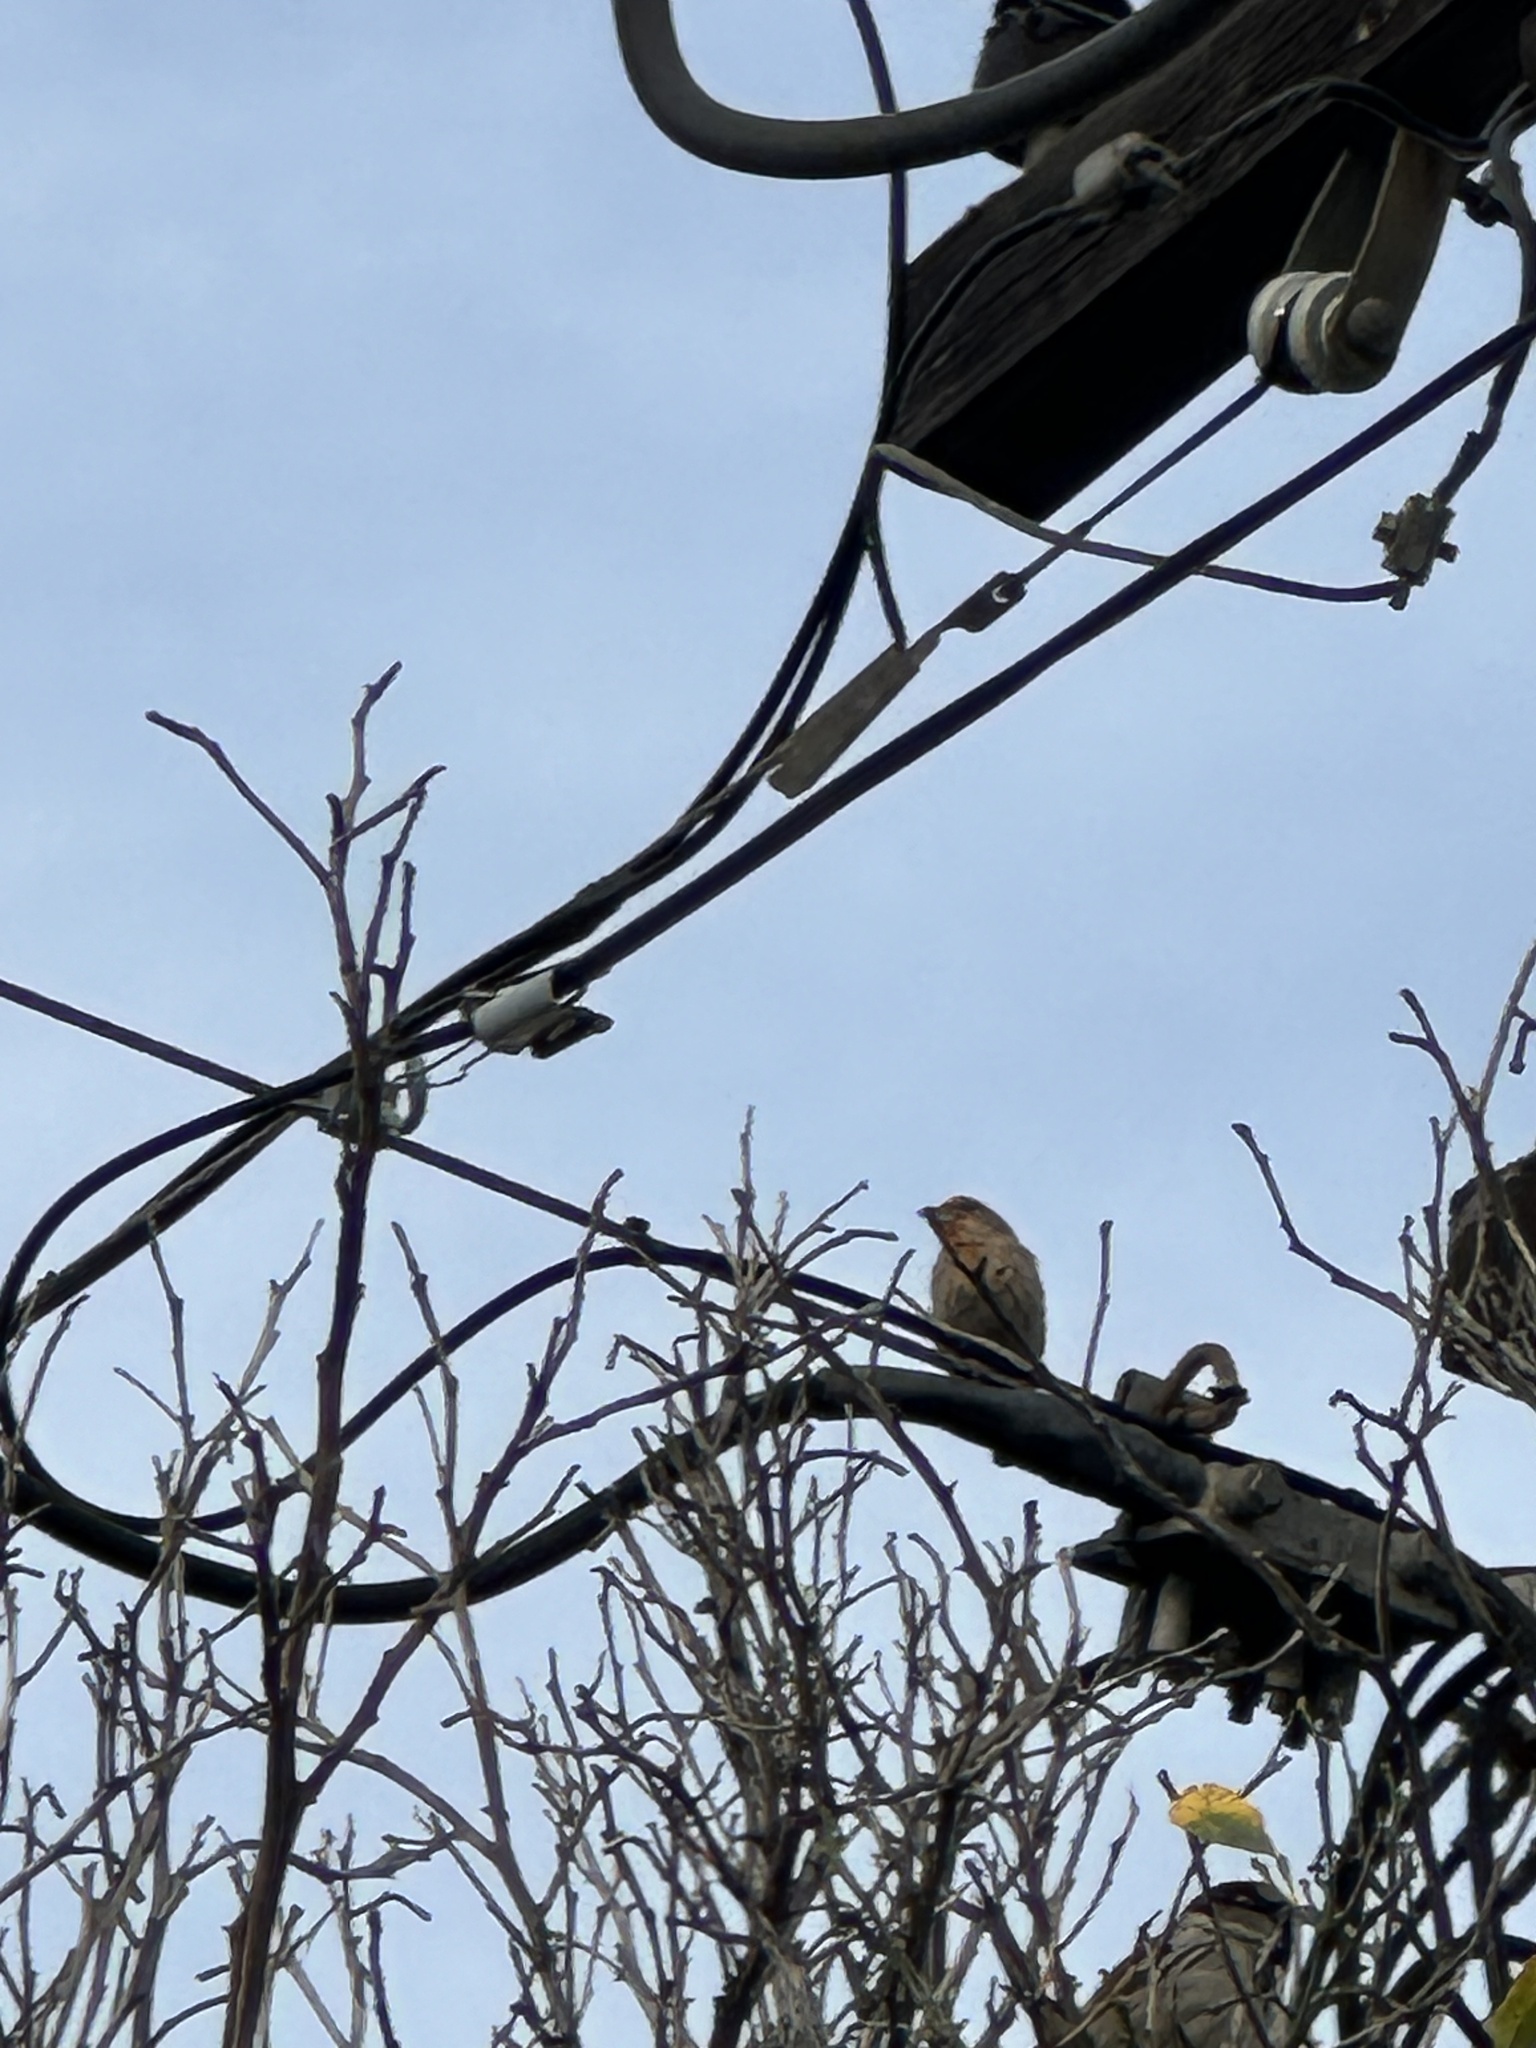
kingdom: Animalia
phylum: Chordata
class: Aves
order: Passeriformes
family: Fringillidae
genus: Haemorhous
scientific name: Haemorhous mexicanus
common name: House finch
